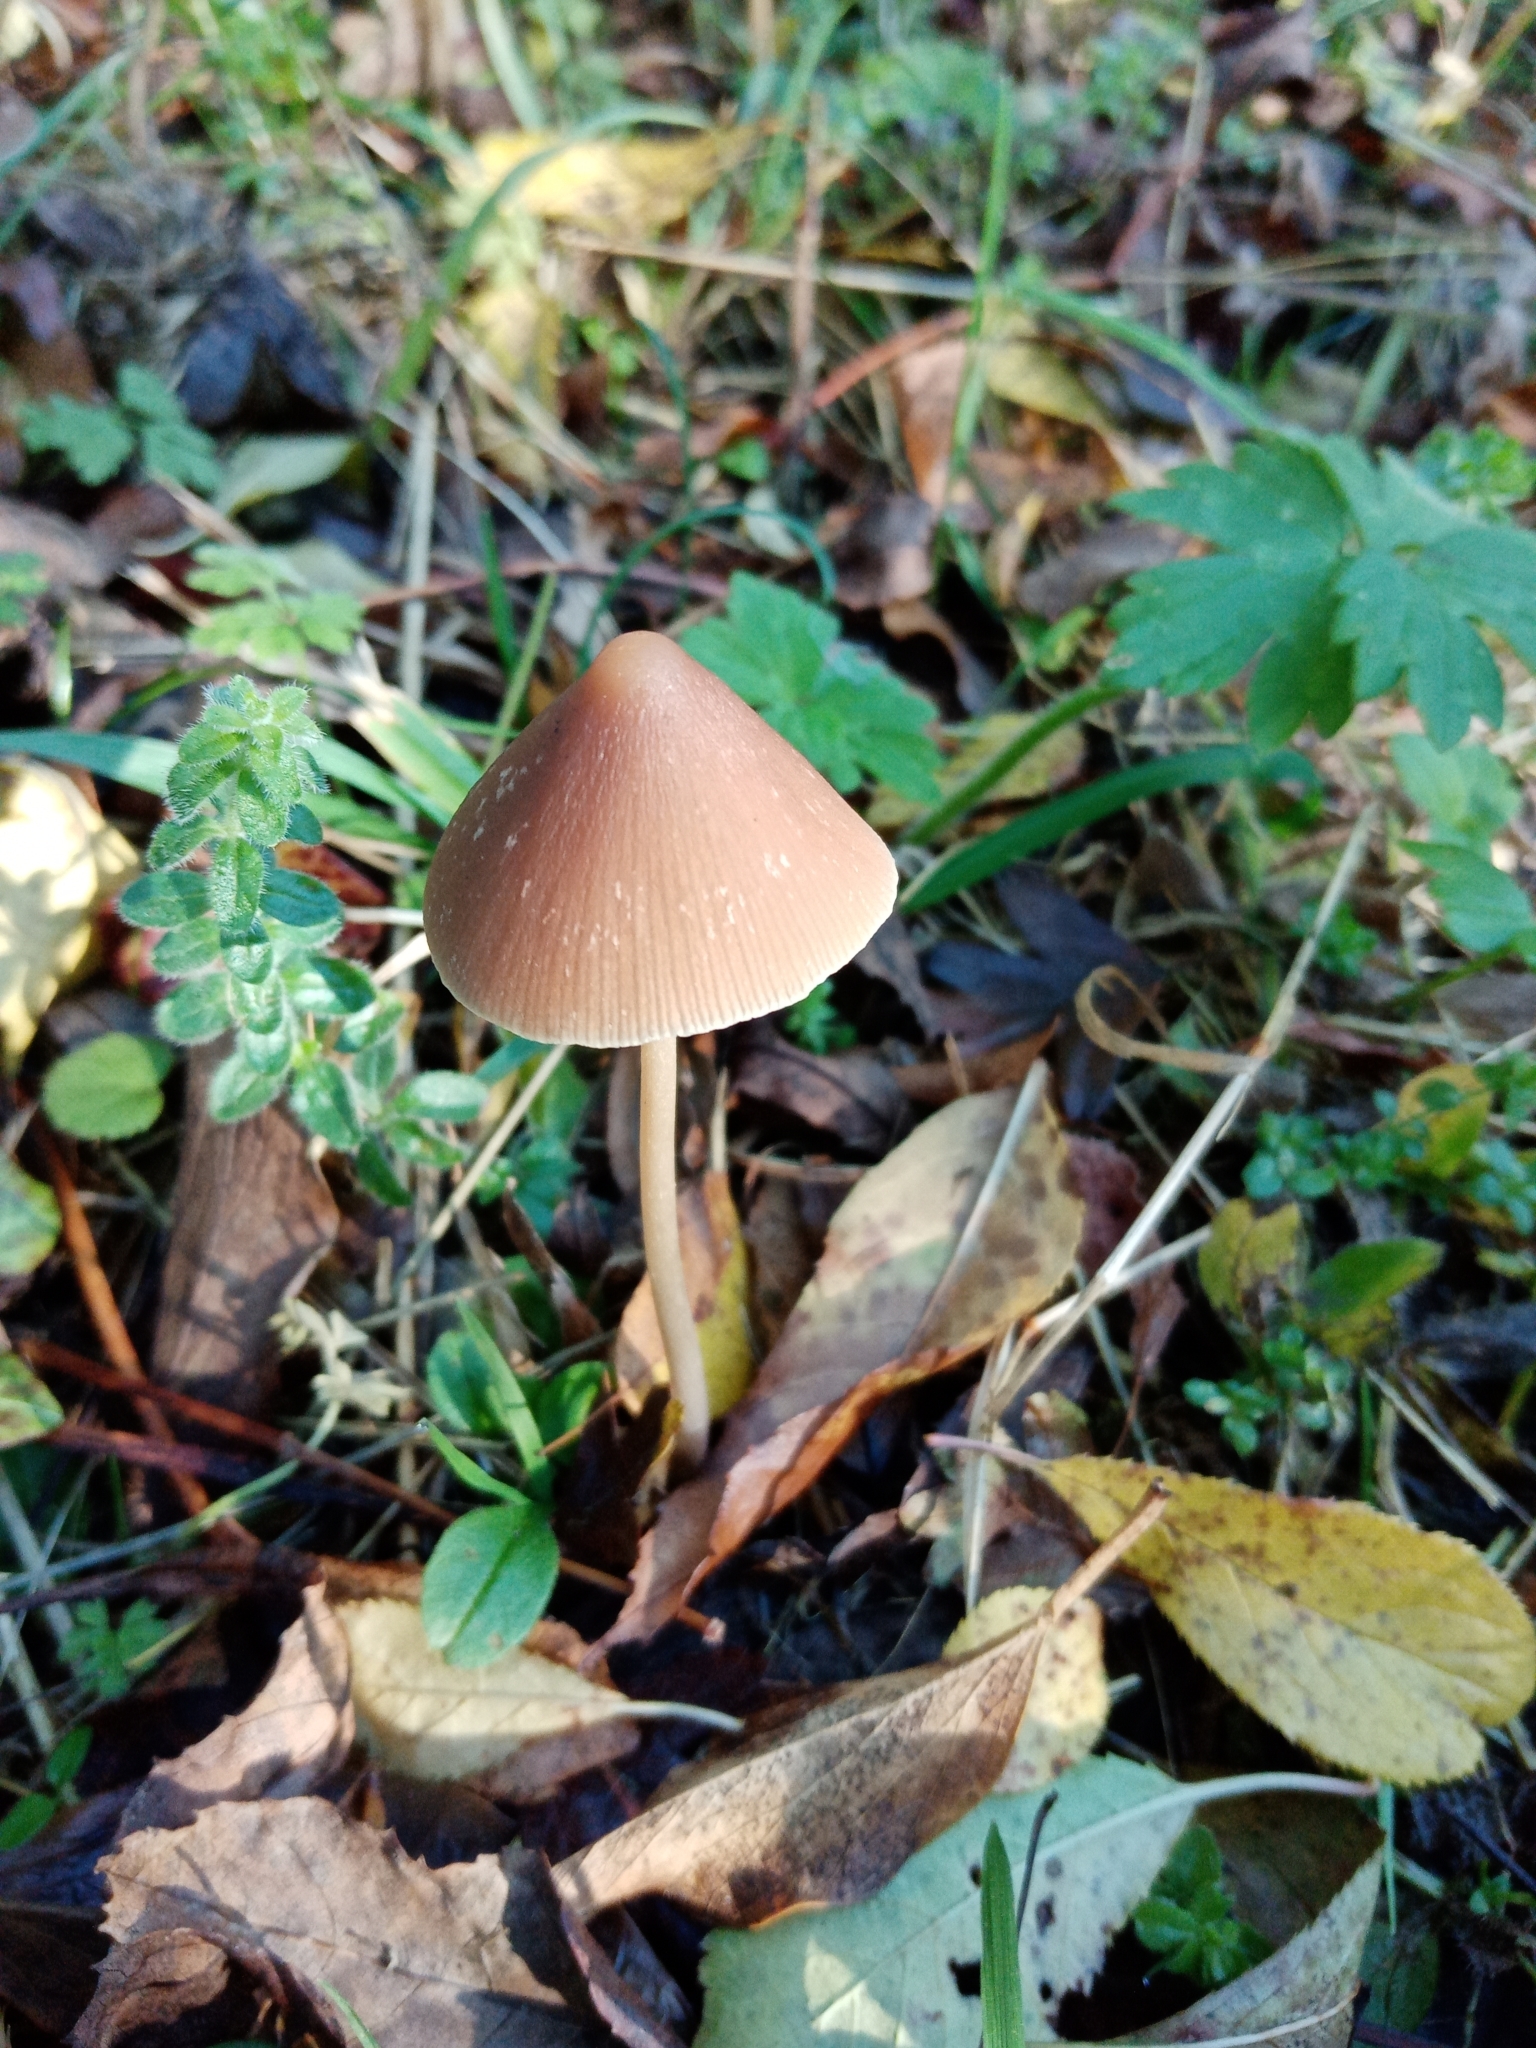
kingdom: Fungi
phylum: Basidiomycota
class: Agaricomycetes
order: Agaricales
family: Psathyrellaceae
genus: Parasola
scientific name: Parasola conopilea
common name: Conical brittlestem
